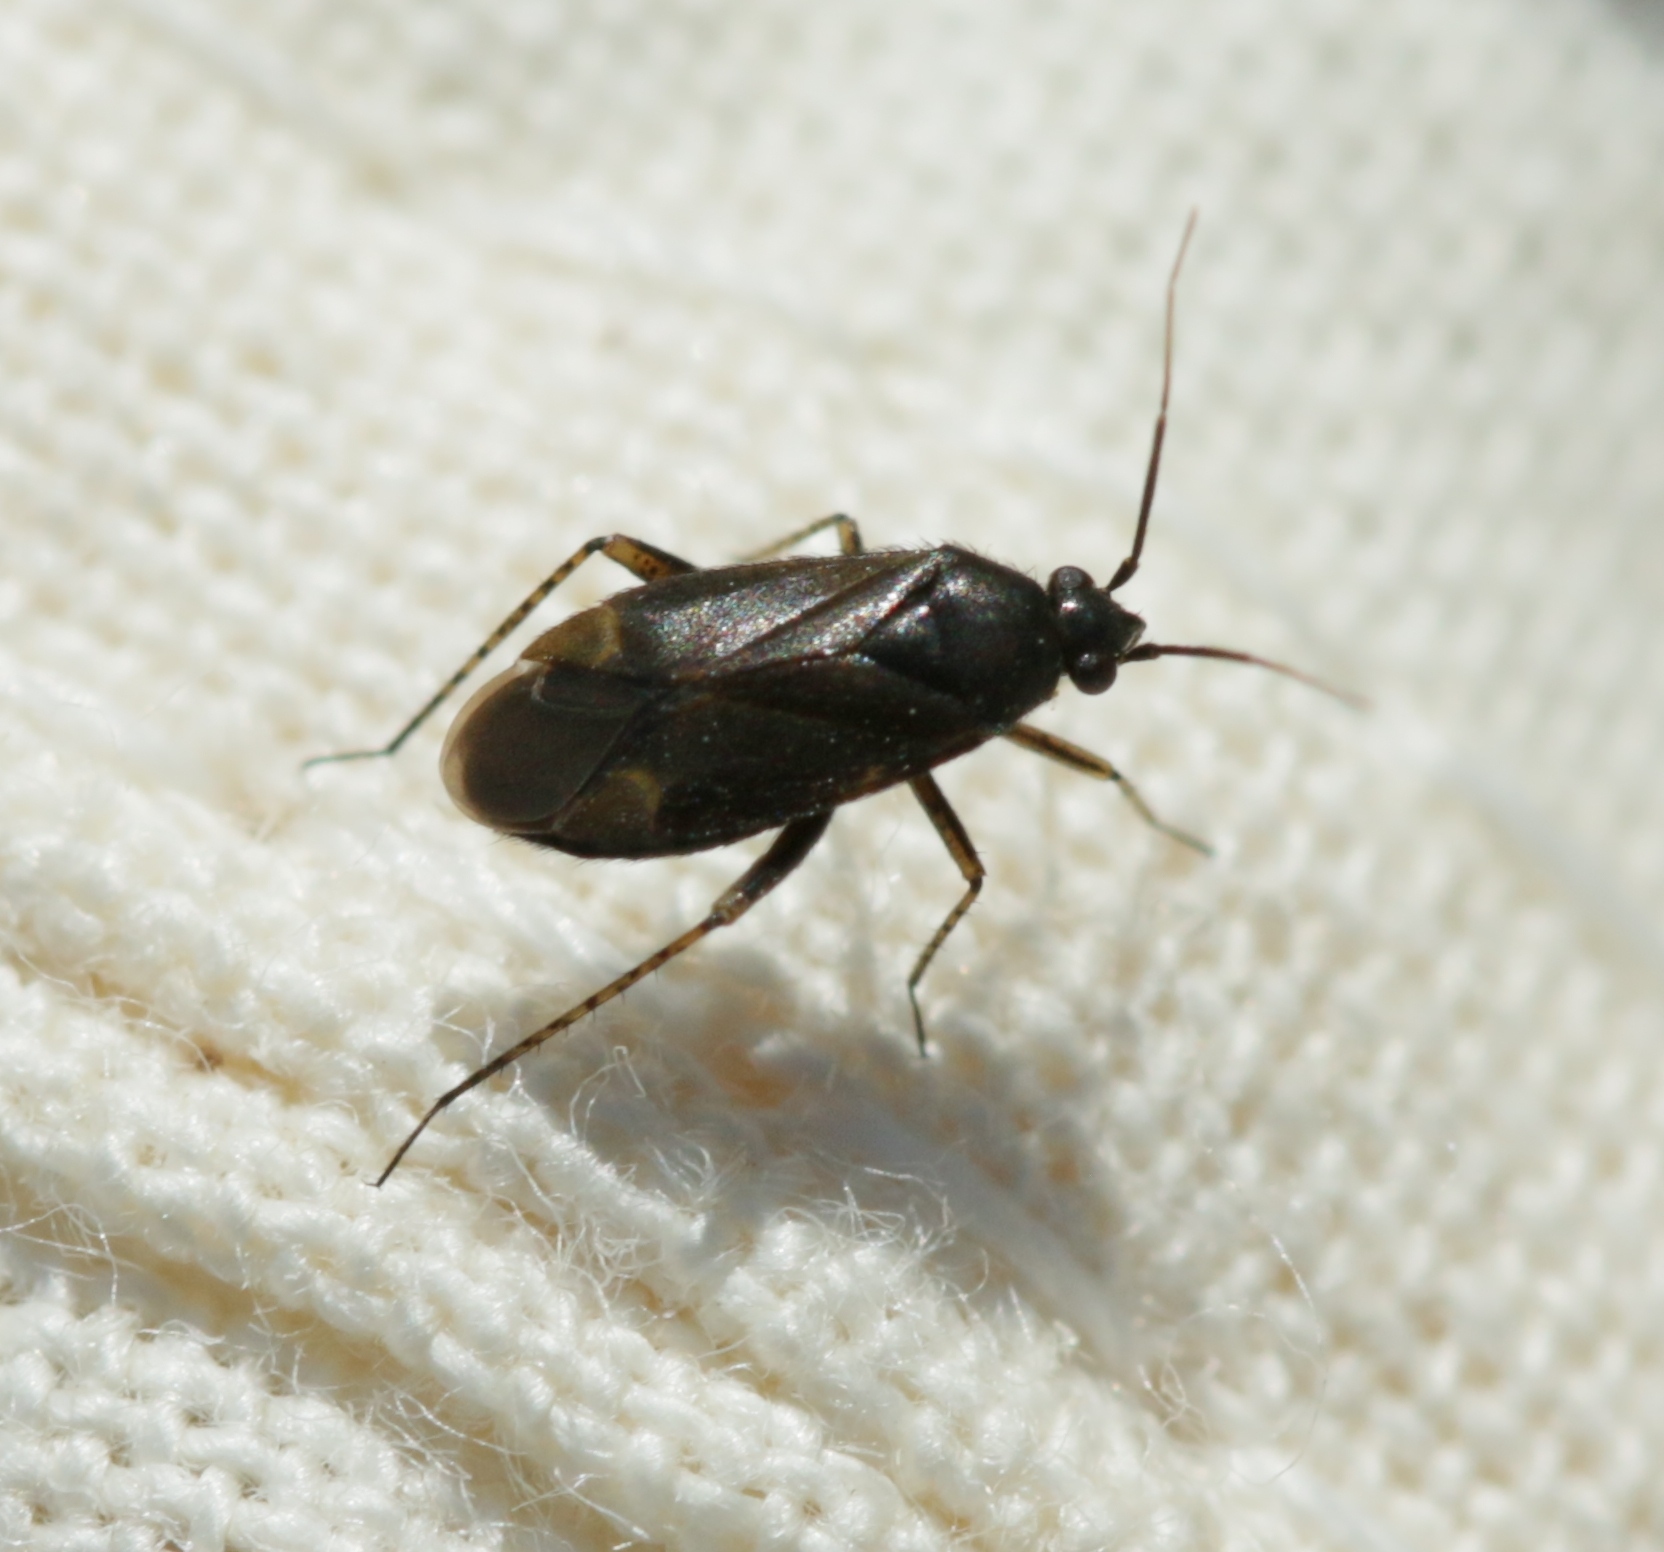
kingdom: Animalia
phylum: Arthropoda
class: Insecta
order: Hemiptera
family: Miridae
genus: Plagiognathus
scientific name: Plagiognathus arbustorum
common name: Plant bug
